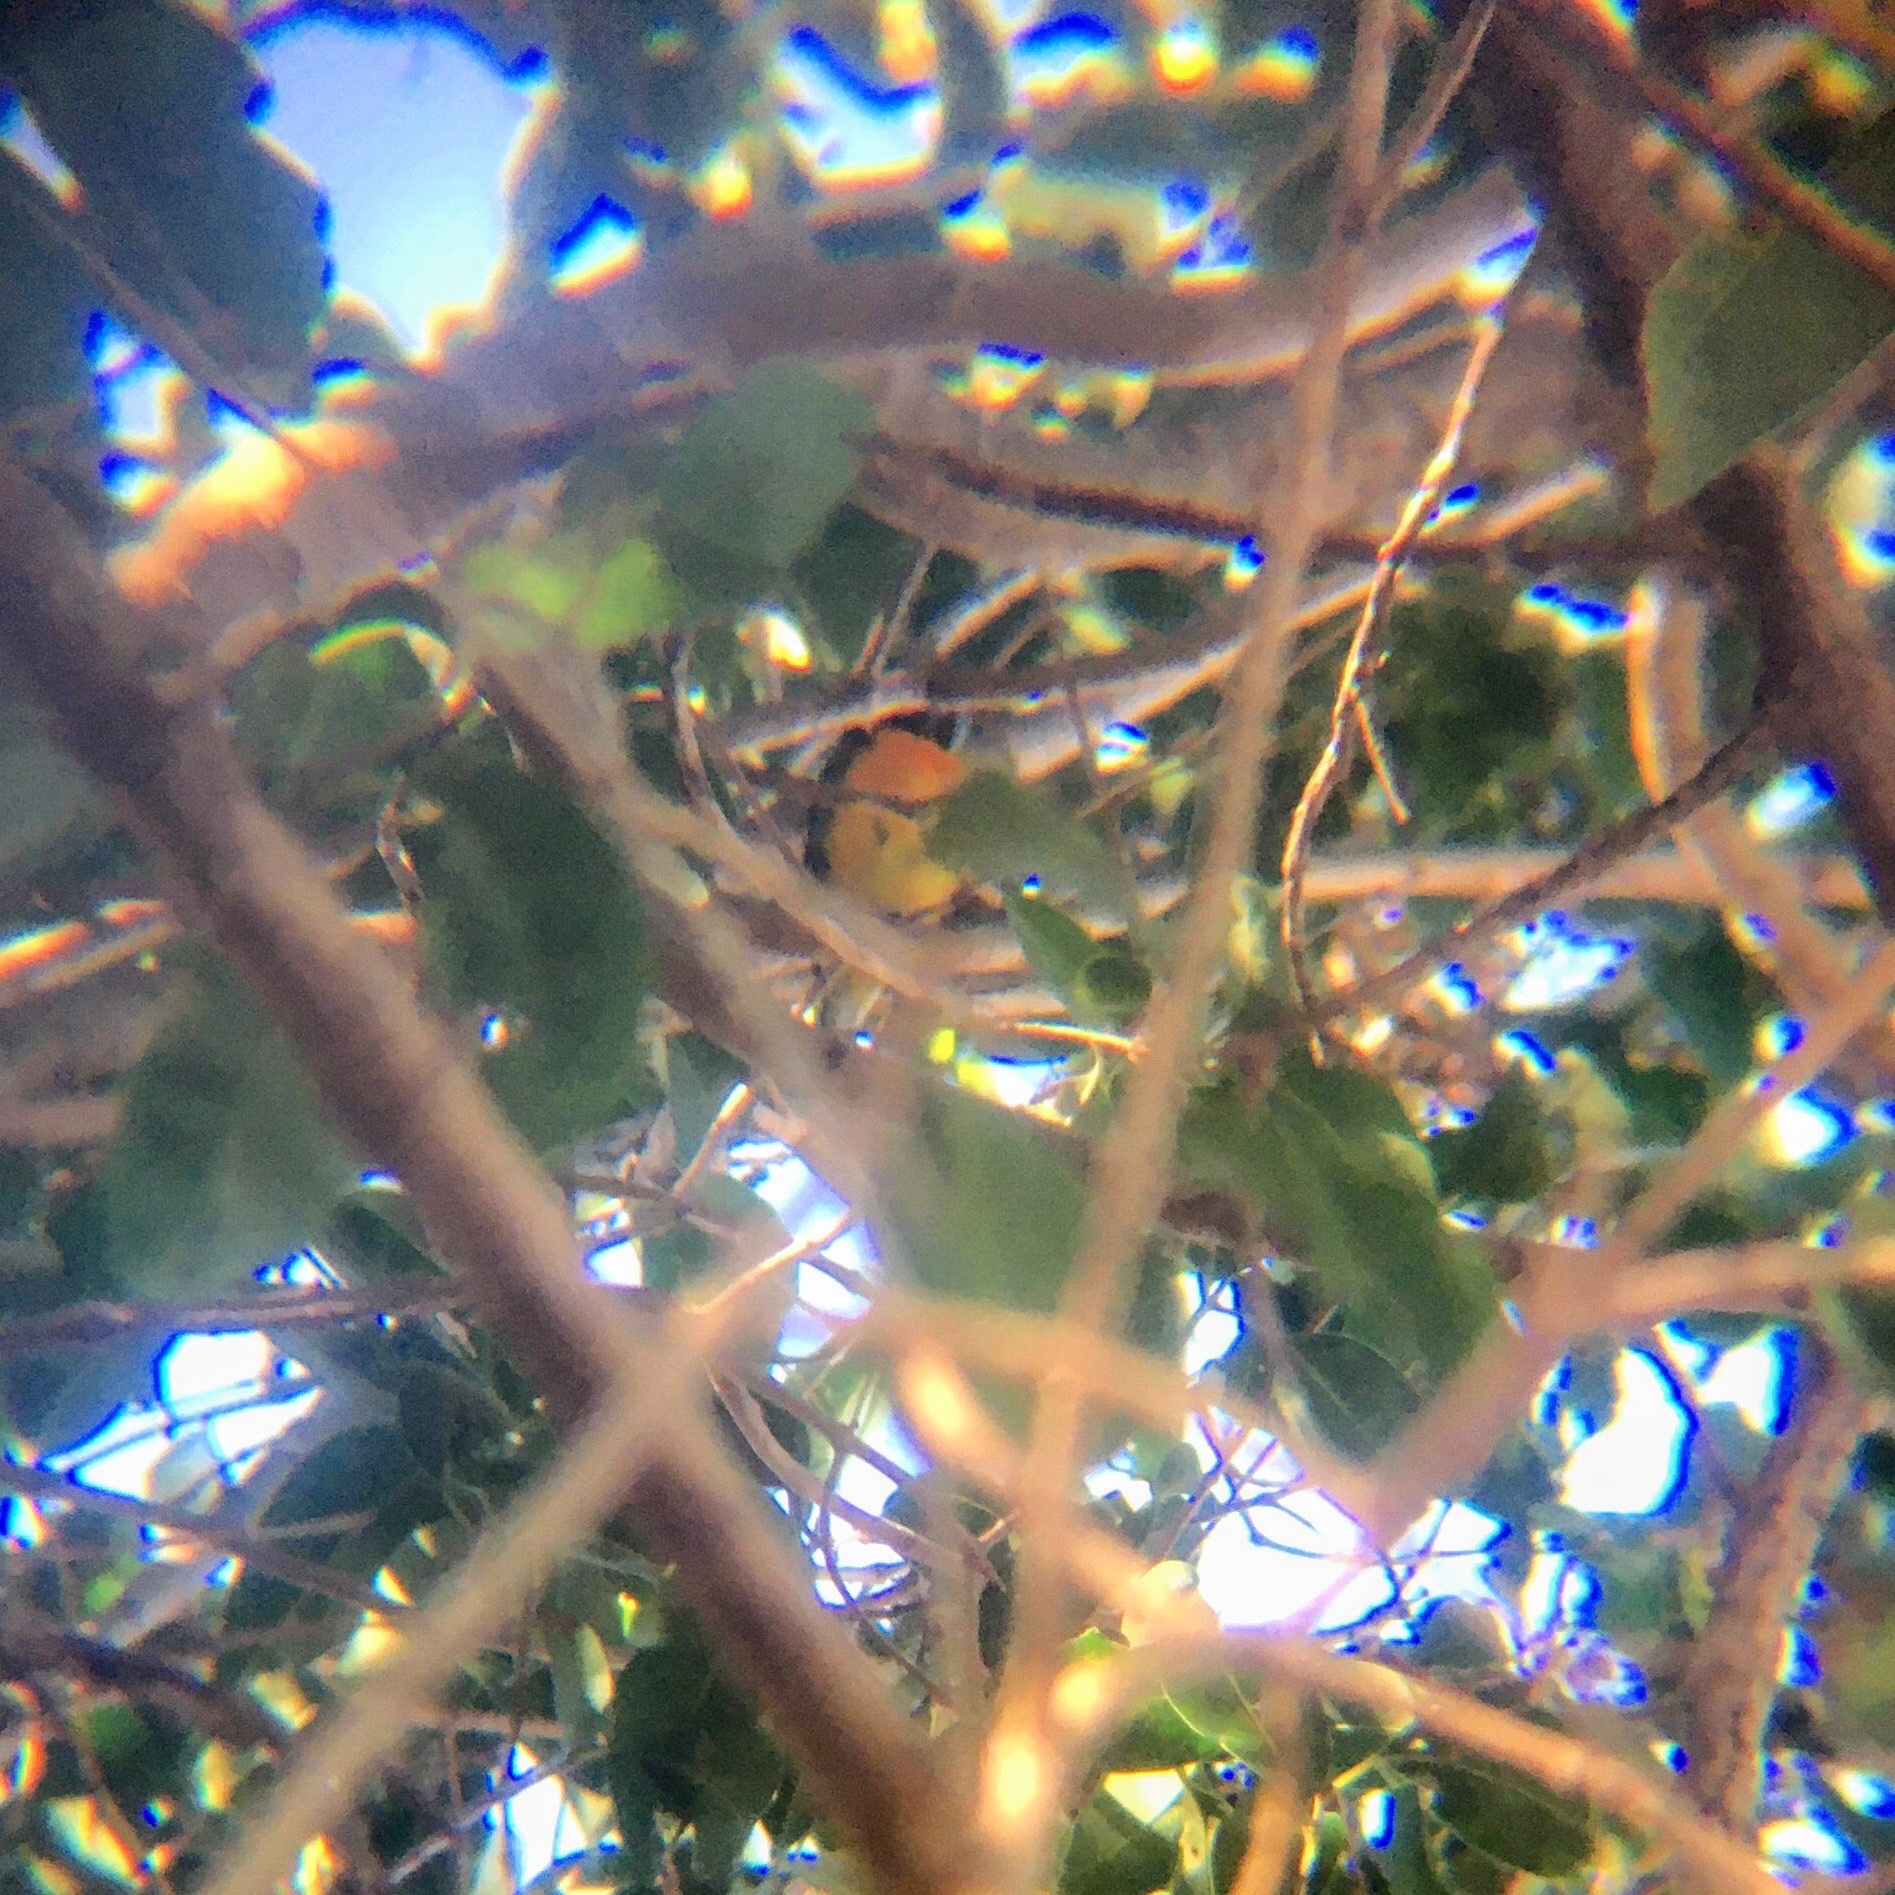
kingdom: Animalia
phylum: Chordata
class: Aves
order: Passeriformes
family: Thraupidae
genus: Rauenia
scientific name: Rauenia bonariensis
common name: Blue-and-yellow tanager
